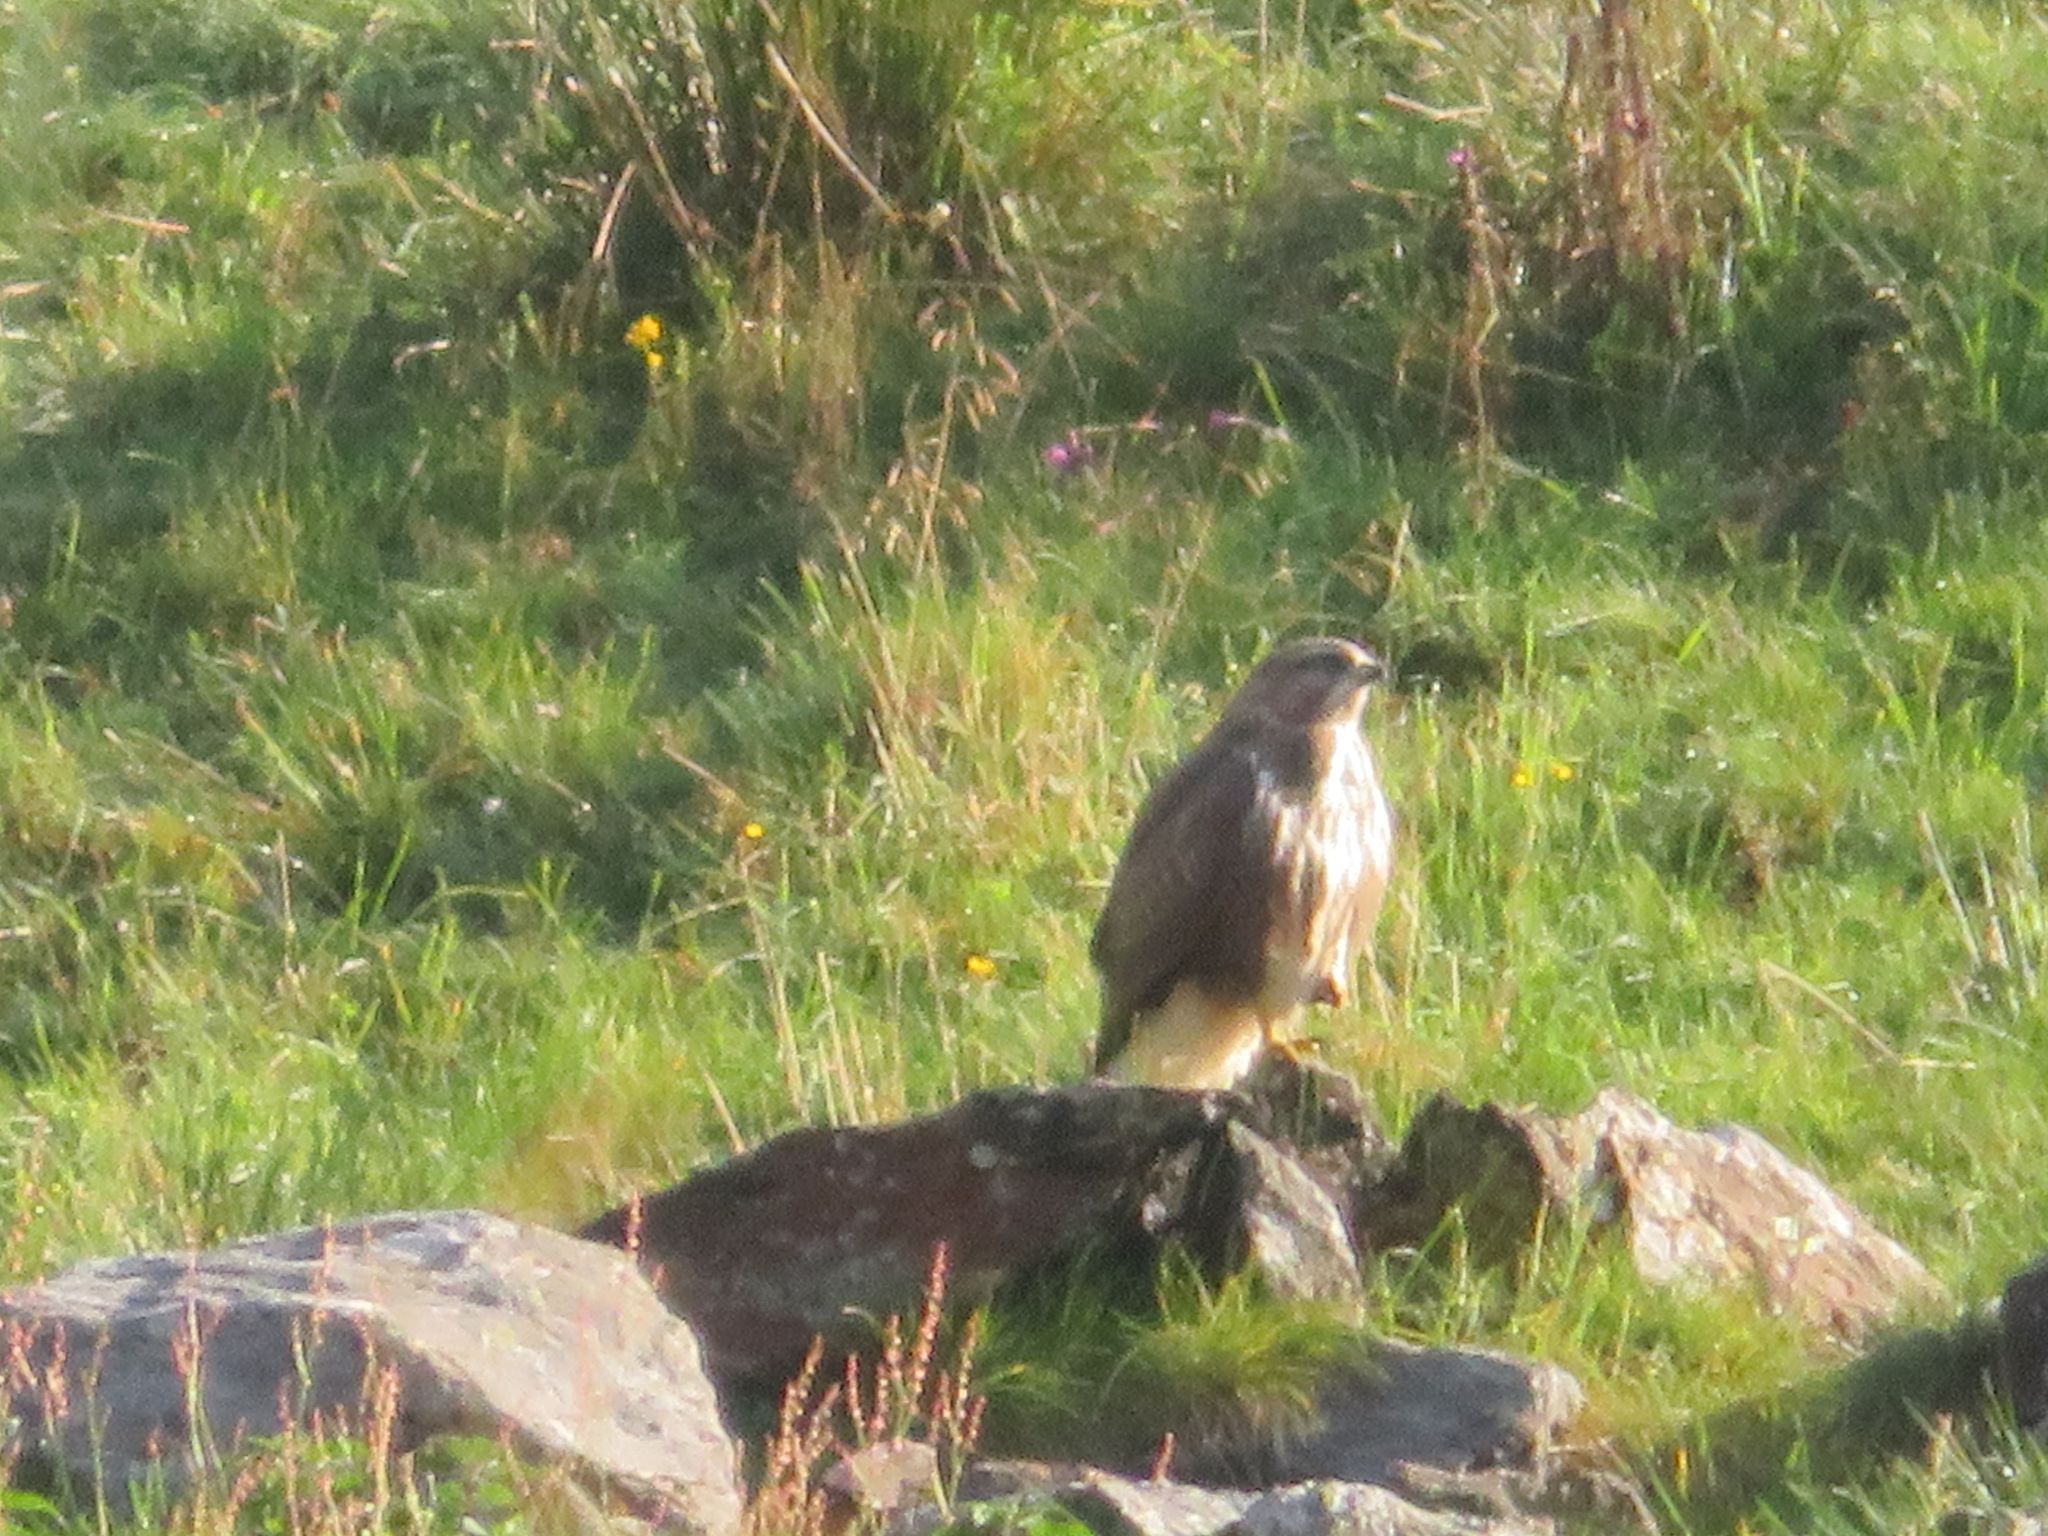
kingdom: Animalia
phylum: Chordata
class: Aves
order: Accipitriformes
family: Accipitridae
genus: Buteo
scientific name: Buteo buteo
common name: Common buzzard
